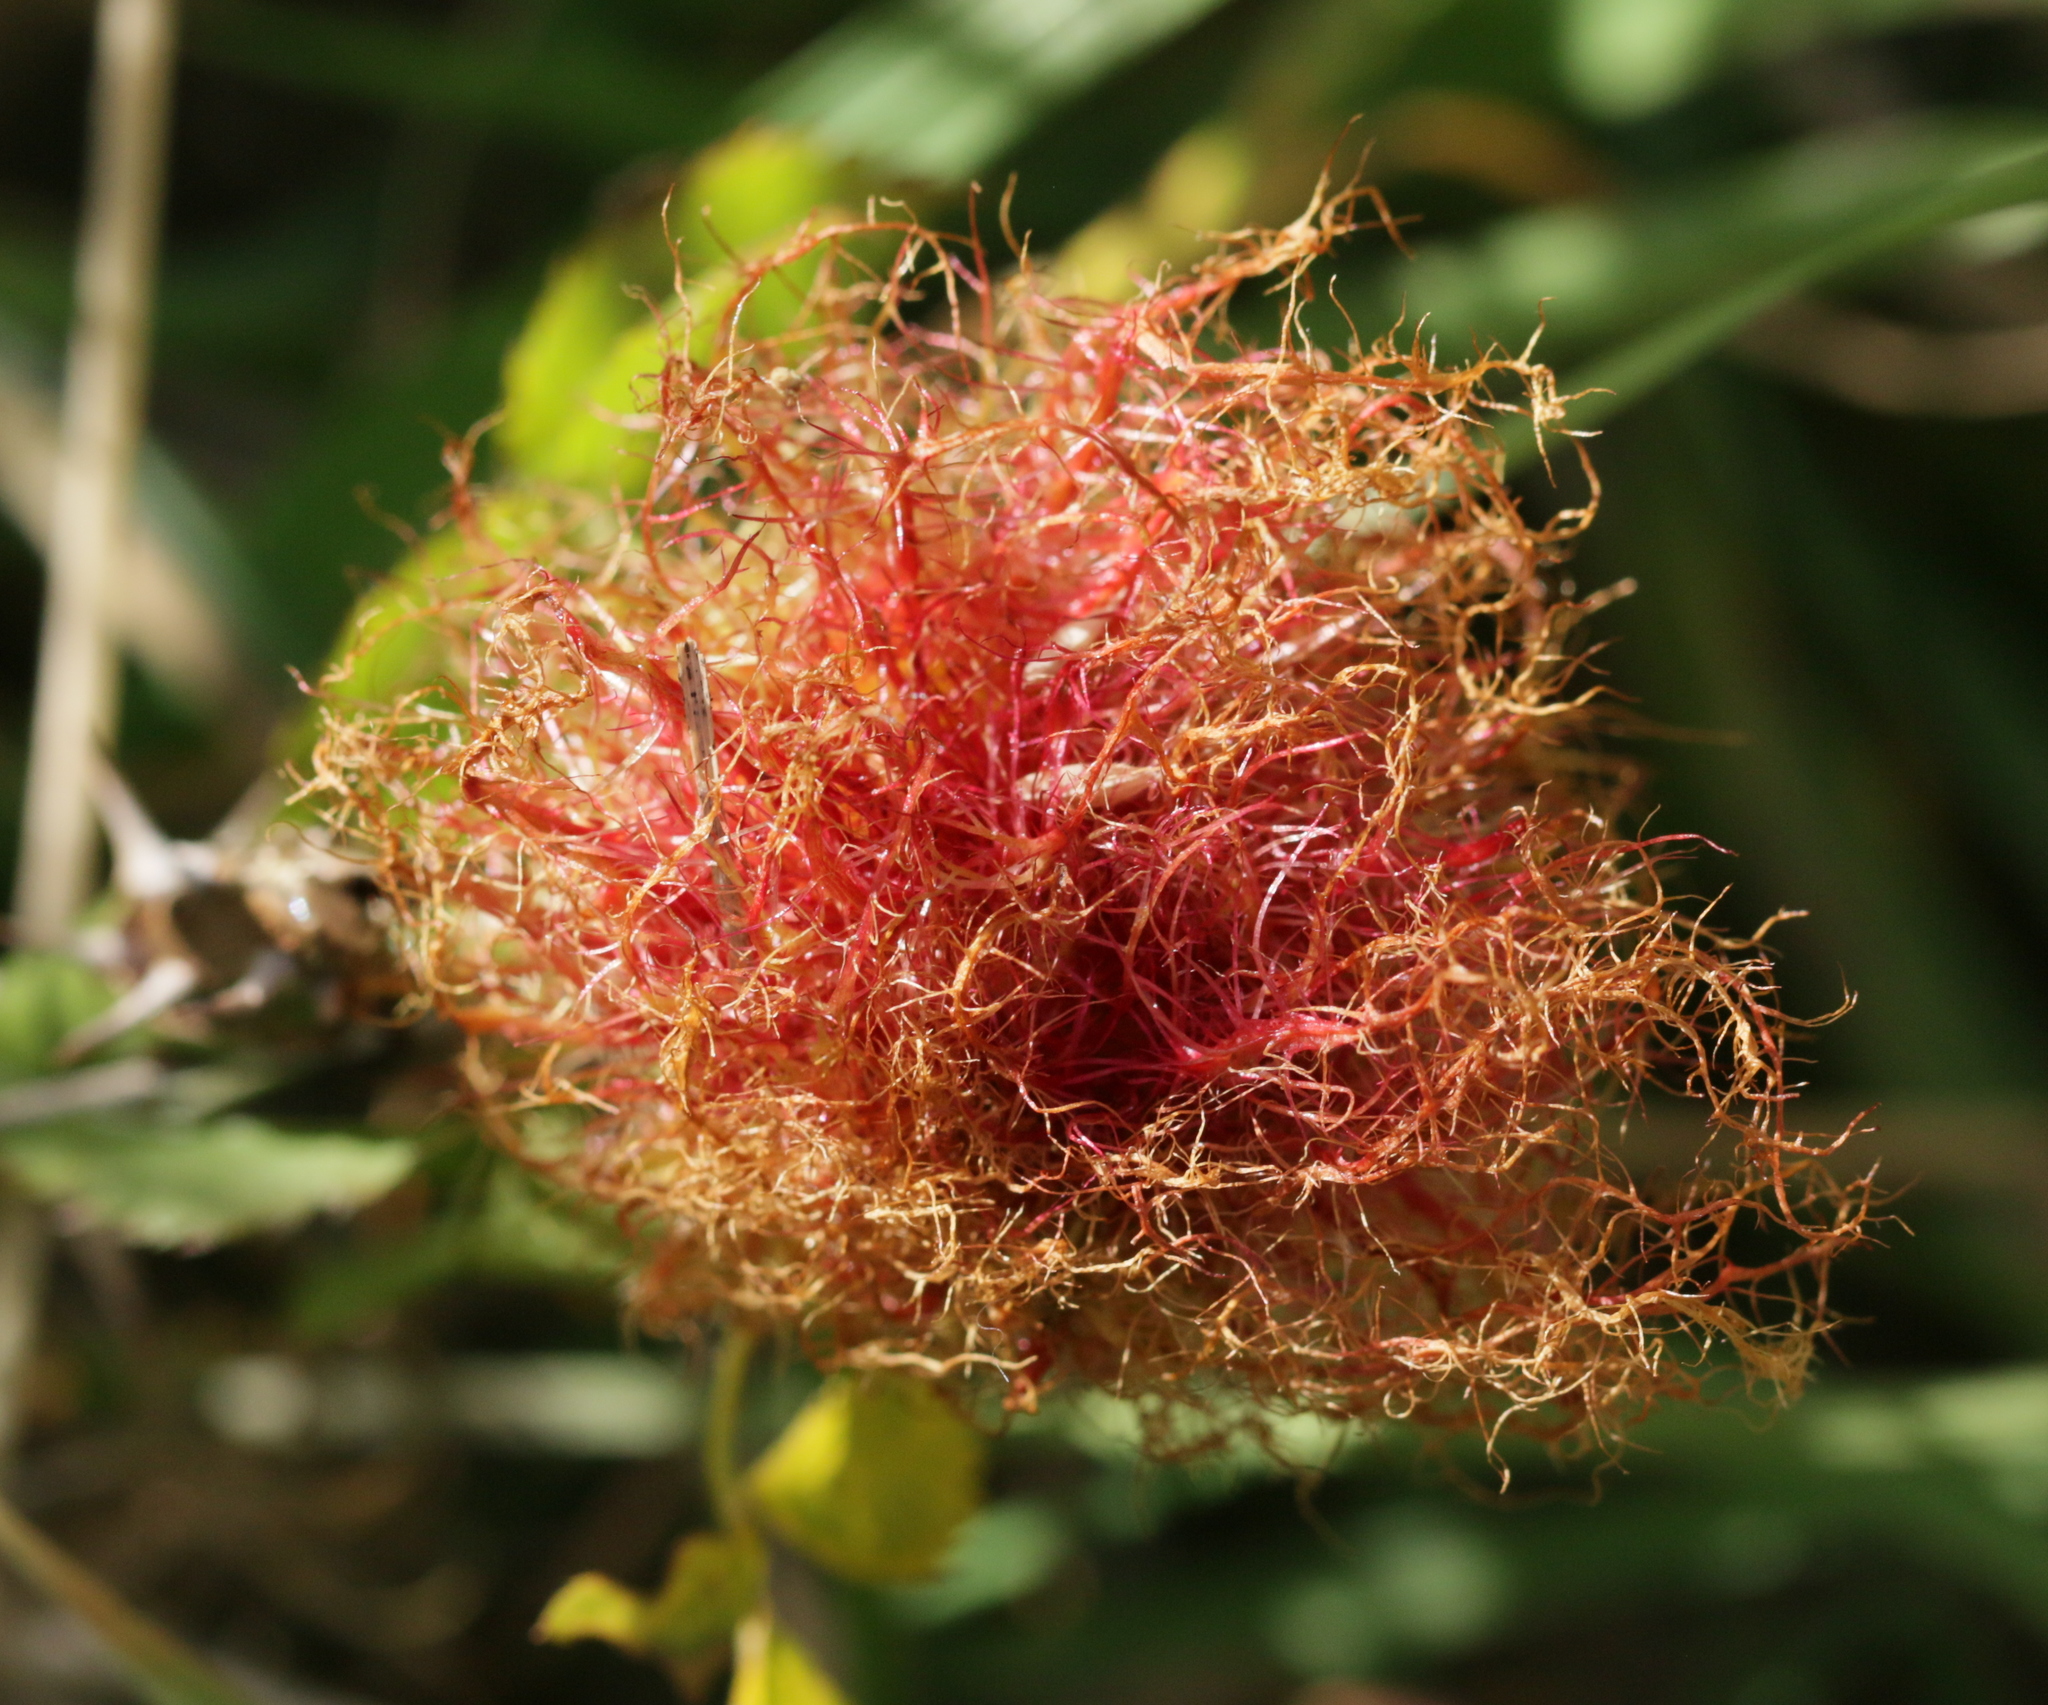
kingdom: Animalia
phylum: Arthropoda
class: Insecta
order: Hymenoptera
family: Cynipidae
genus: Diplolepis
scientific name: Diplolepis rosae
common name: Bedeguar gall
